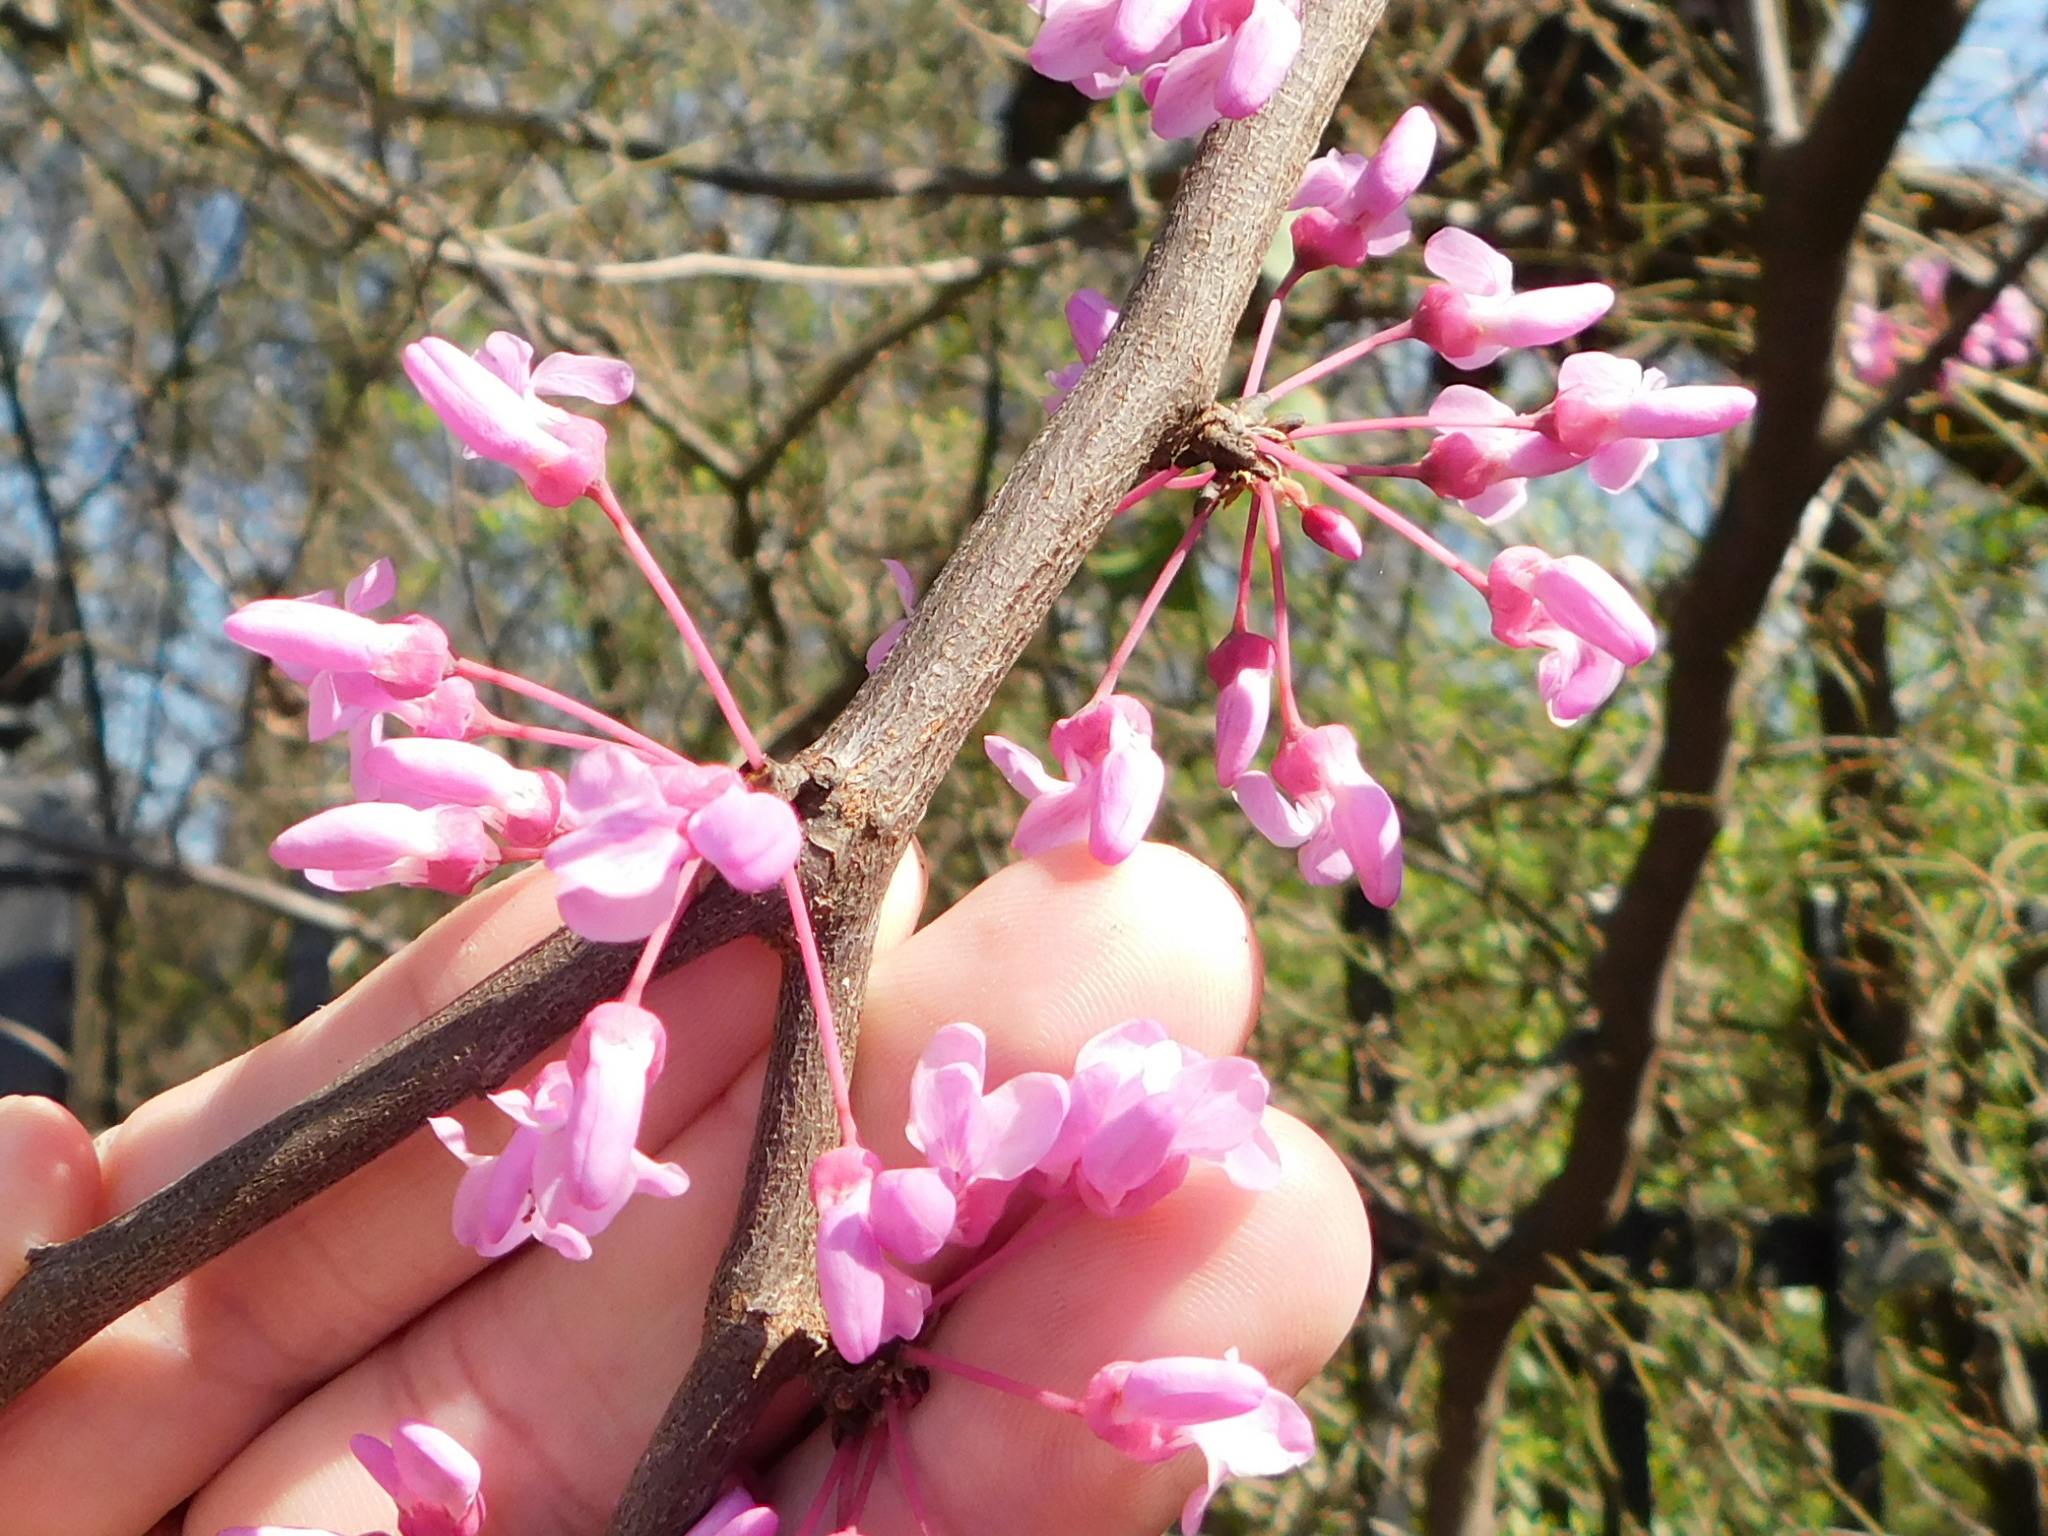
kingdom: Plantae
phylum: Tracheophyta
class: Magnoliopsida
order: Fabales
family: Fabaceae
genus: Cercis
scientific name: Cercis canadensis
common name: Eastern redbud
